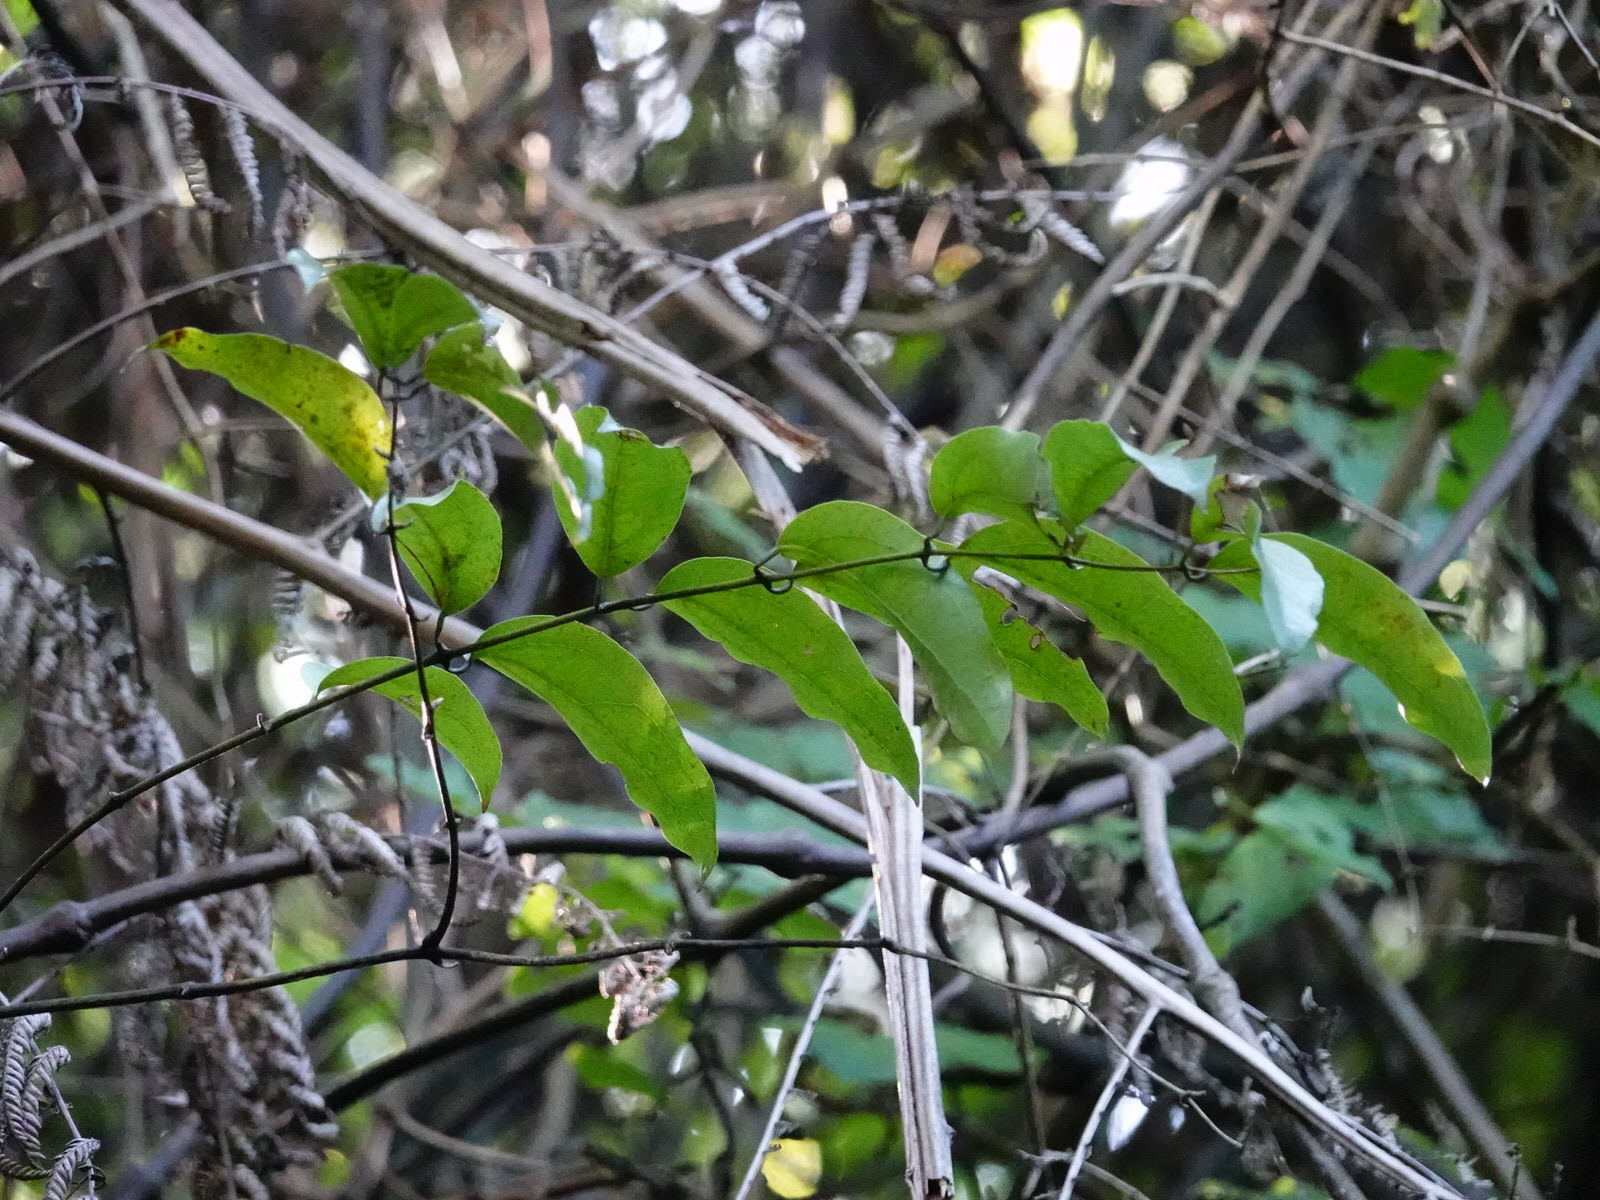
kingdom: Plantae
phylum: Tracheophyta
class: Liliopsida
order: Liliales
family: Ripogonaceae
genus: Ripogonum
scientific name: Ripogonum scandens
